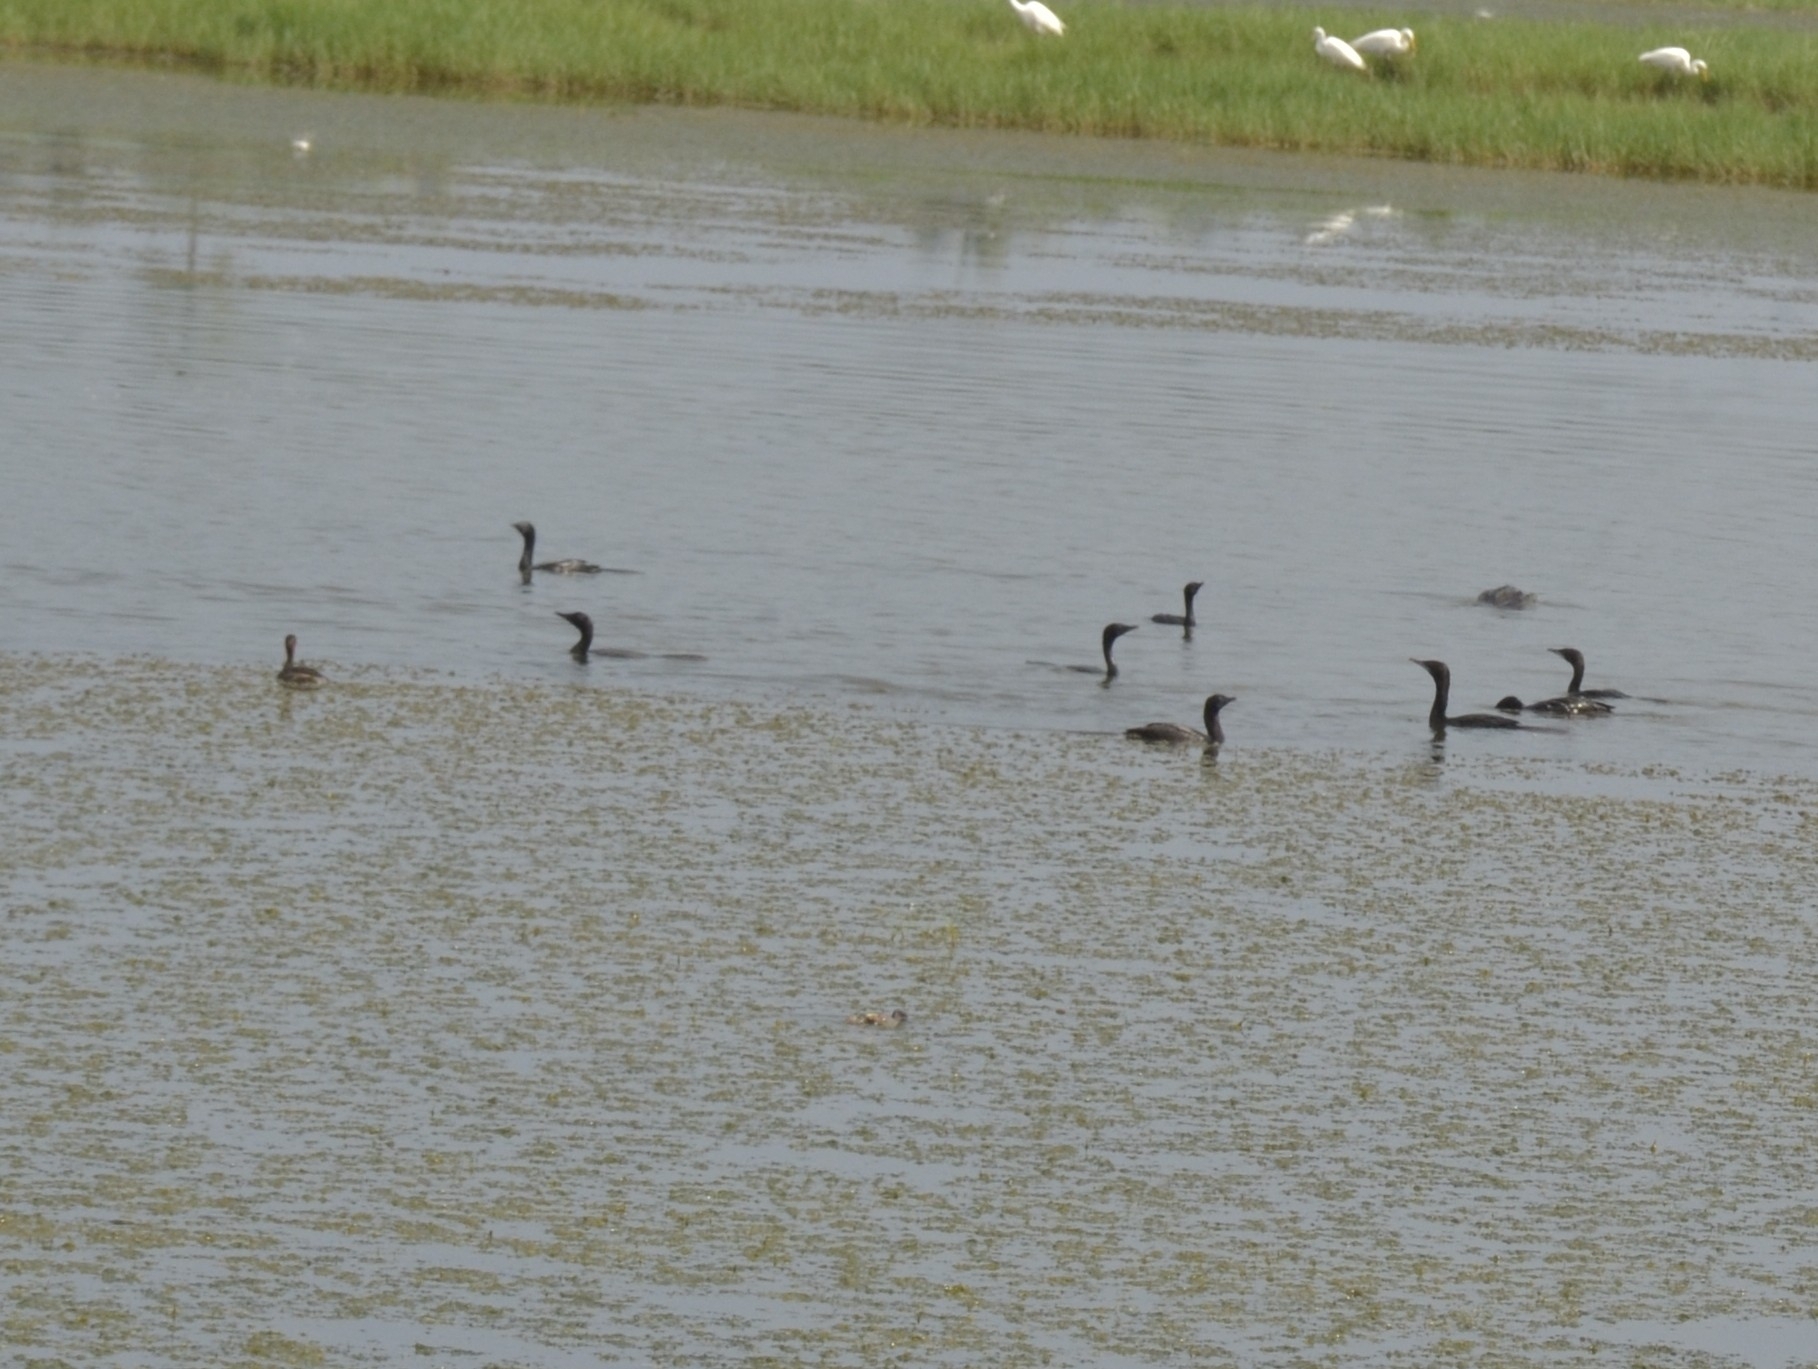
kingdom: Animalia
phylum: Chordata
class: Aves
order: Suliformes
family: Phalacrocoracidae
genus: Microcarbo
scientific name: Microcarbo niger
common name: Little cormorant
